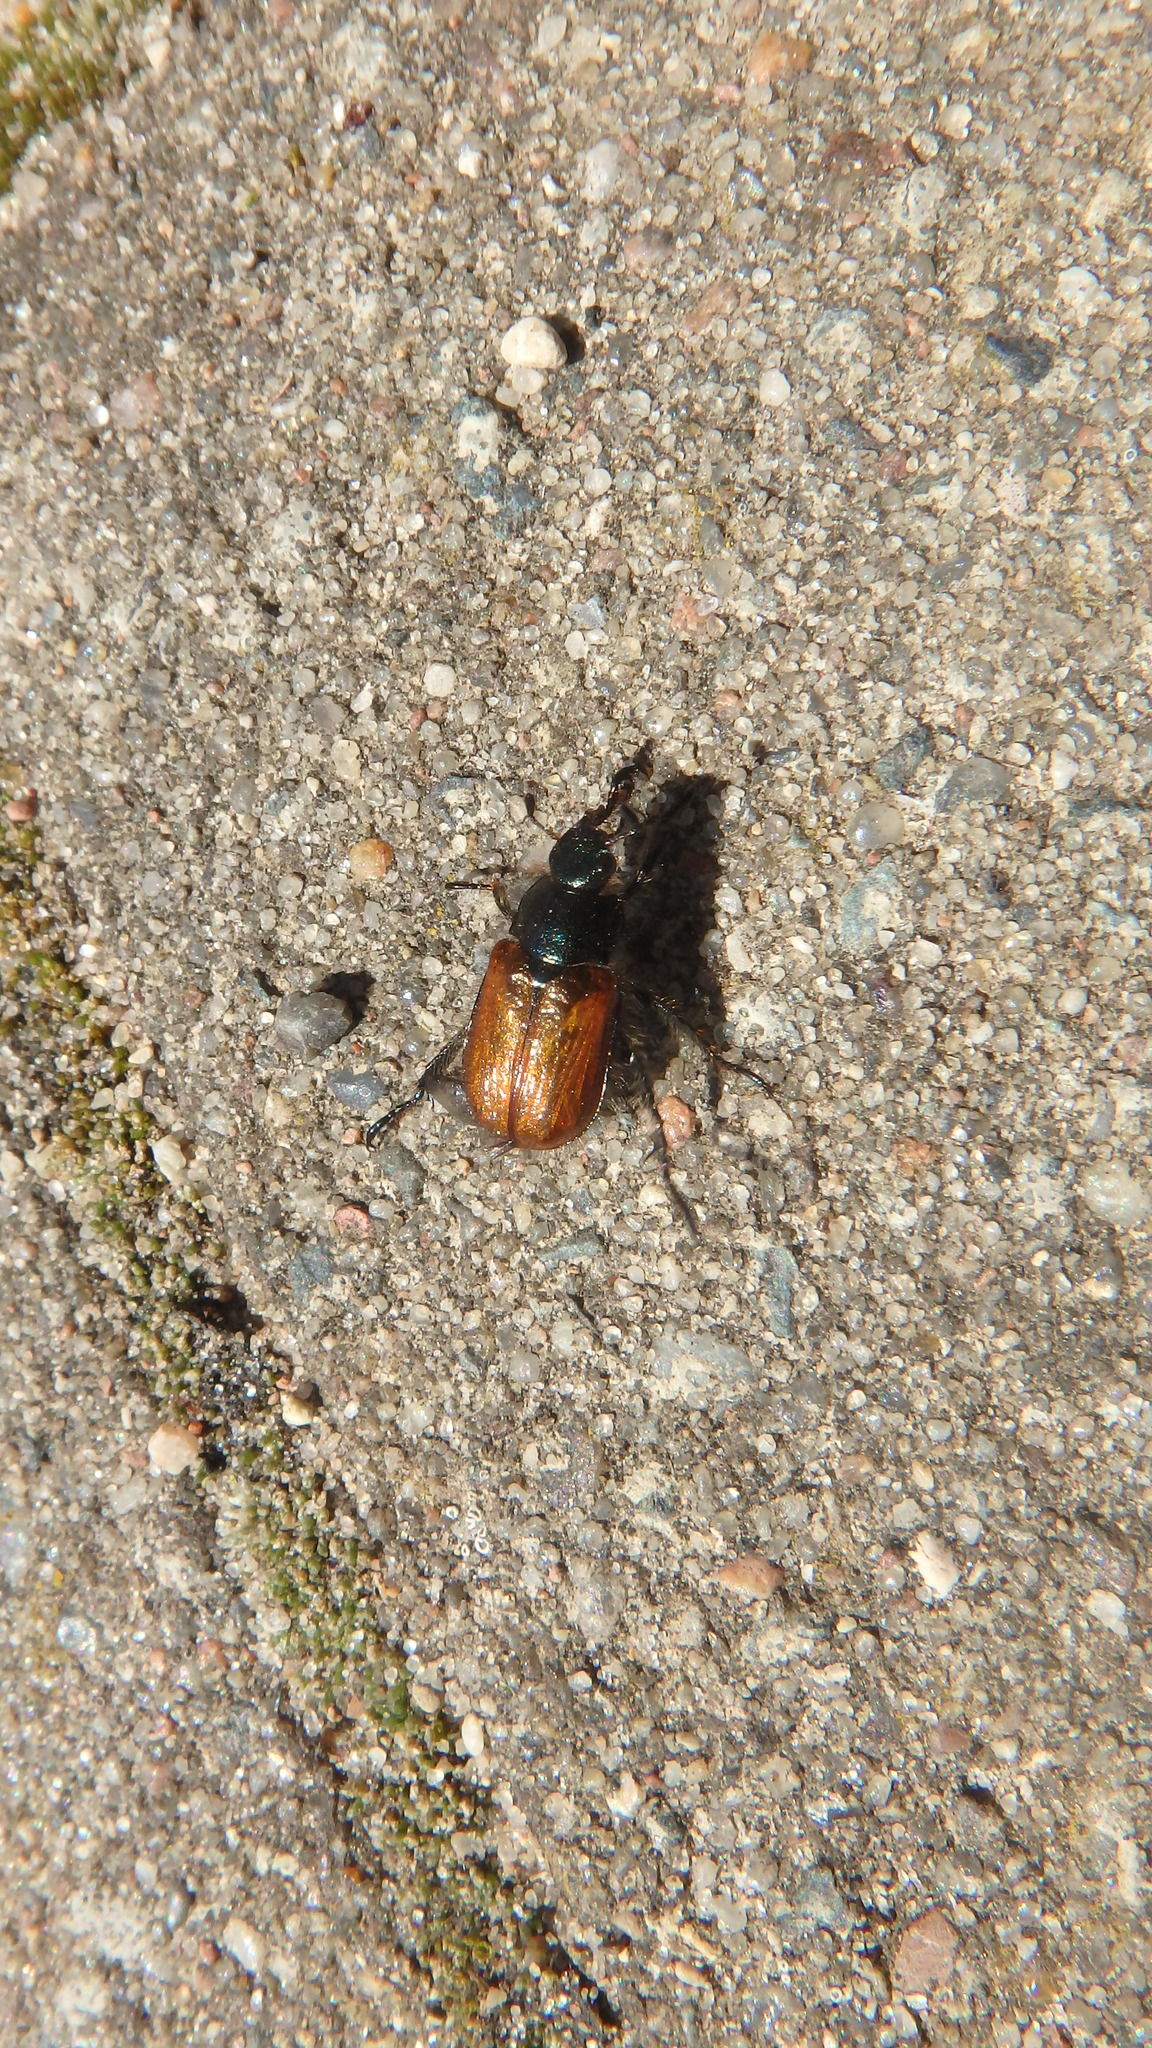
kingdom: Animalia
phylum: Arthropoda
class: Insecta
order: Coleoptera
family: Scarabaeidae
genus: Phyllopertha
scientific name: Phyllopertha horticola
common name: Garden chafer
